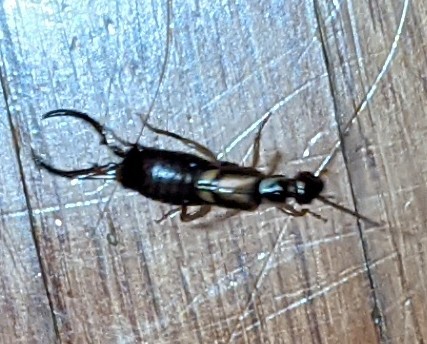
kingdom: Animalia
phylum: Arthropoda
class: Insecta
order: Dermaptera
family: Forficulidae
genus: Forficula
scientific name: Forficula
